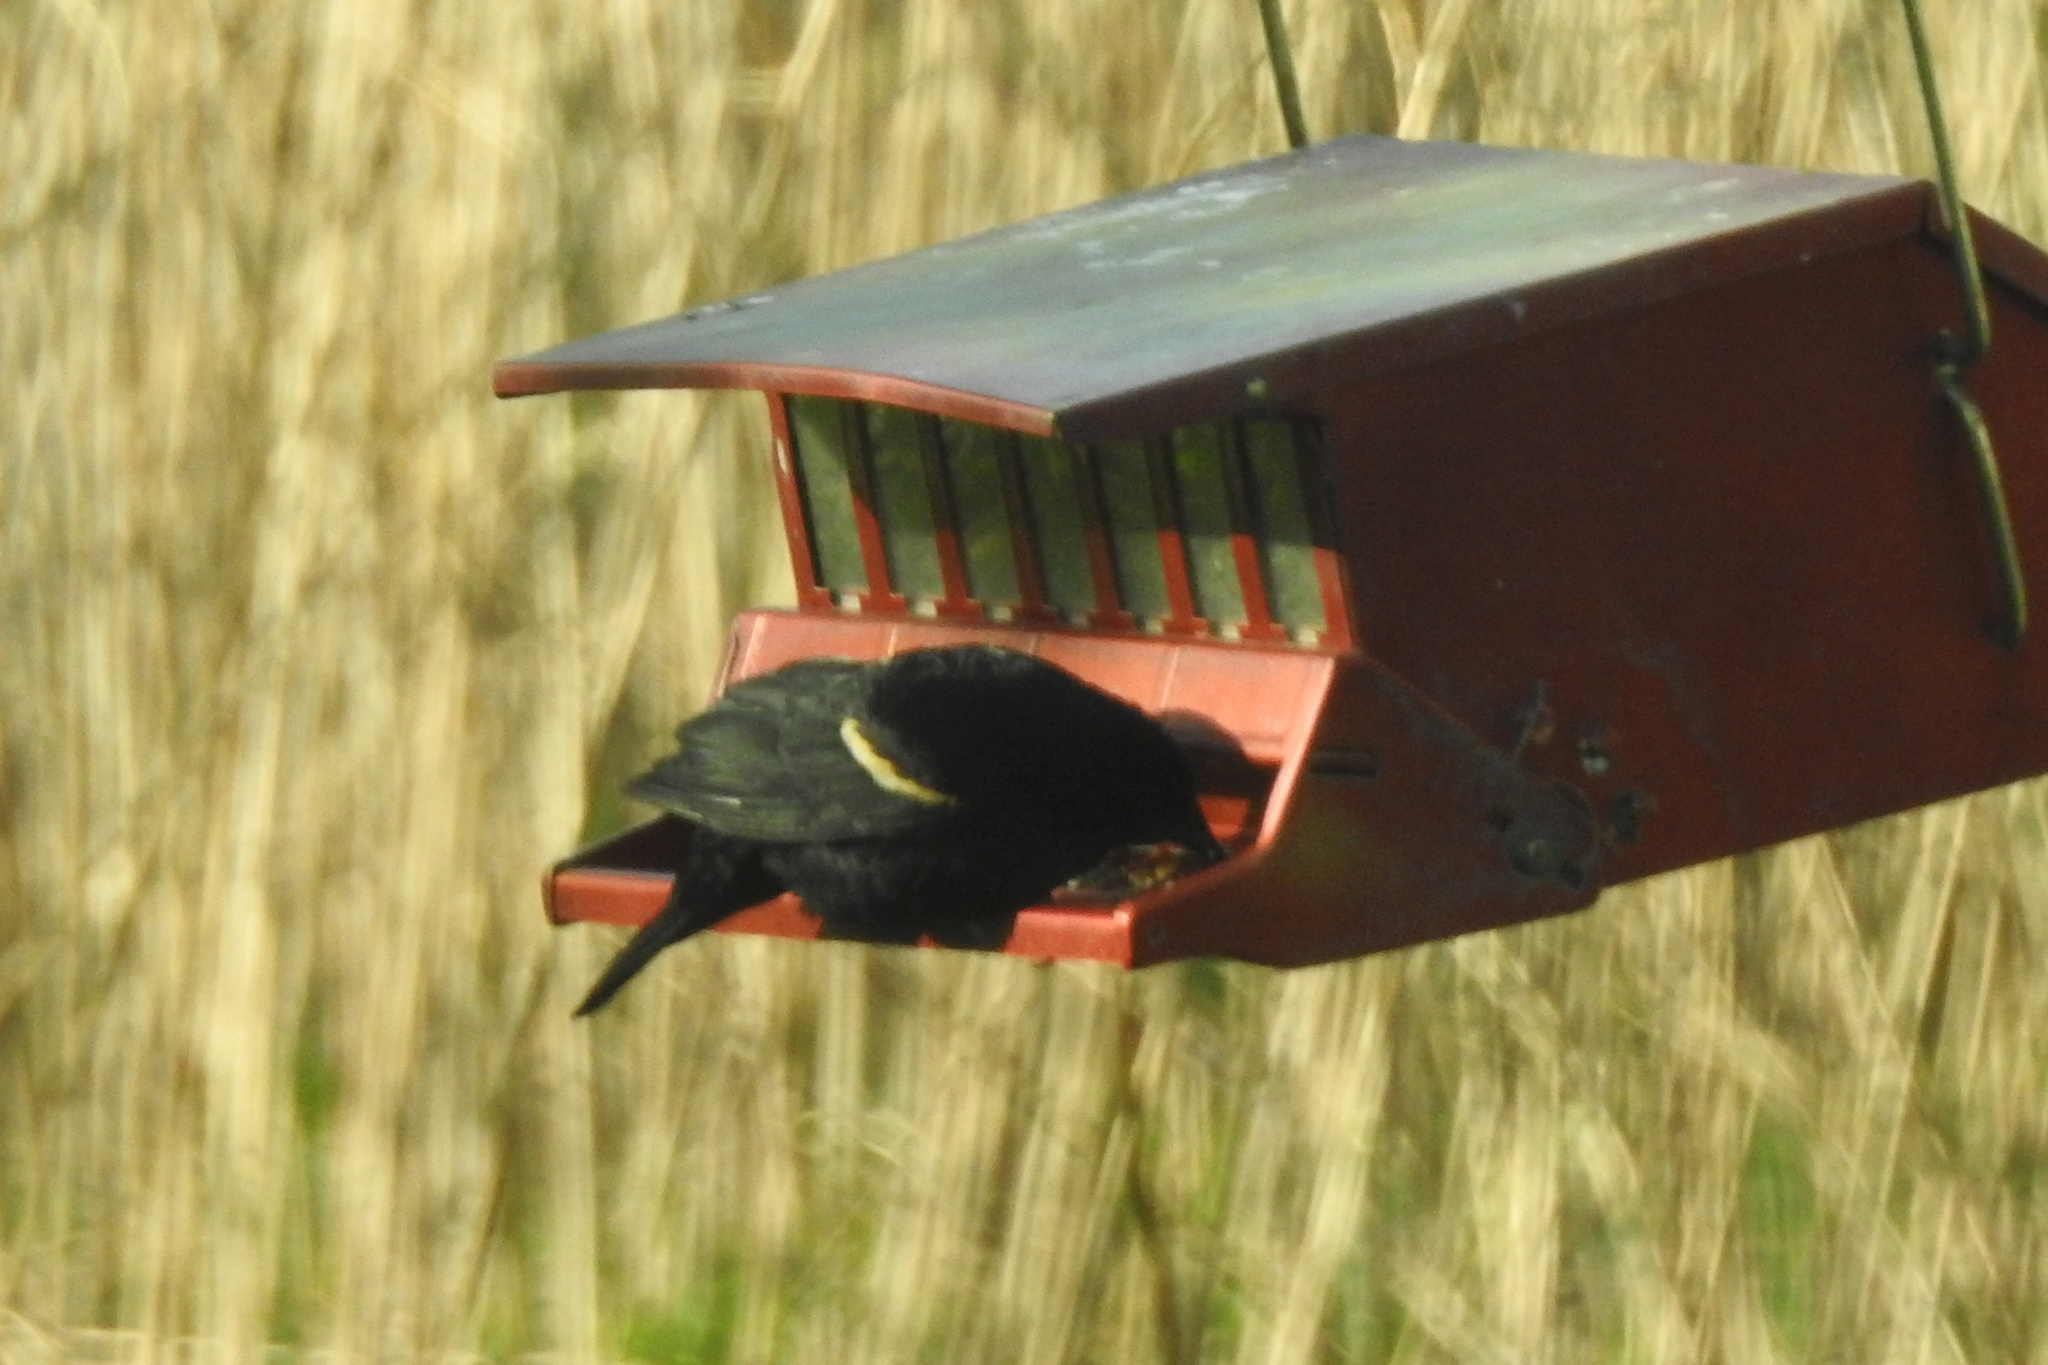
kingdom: Animalia
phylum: Chordata
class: Aves
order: Passeriformes
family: Icteridae
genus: Agelaius
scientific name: Agelaius phoeniceus
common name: Red-winged blackbird
